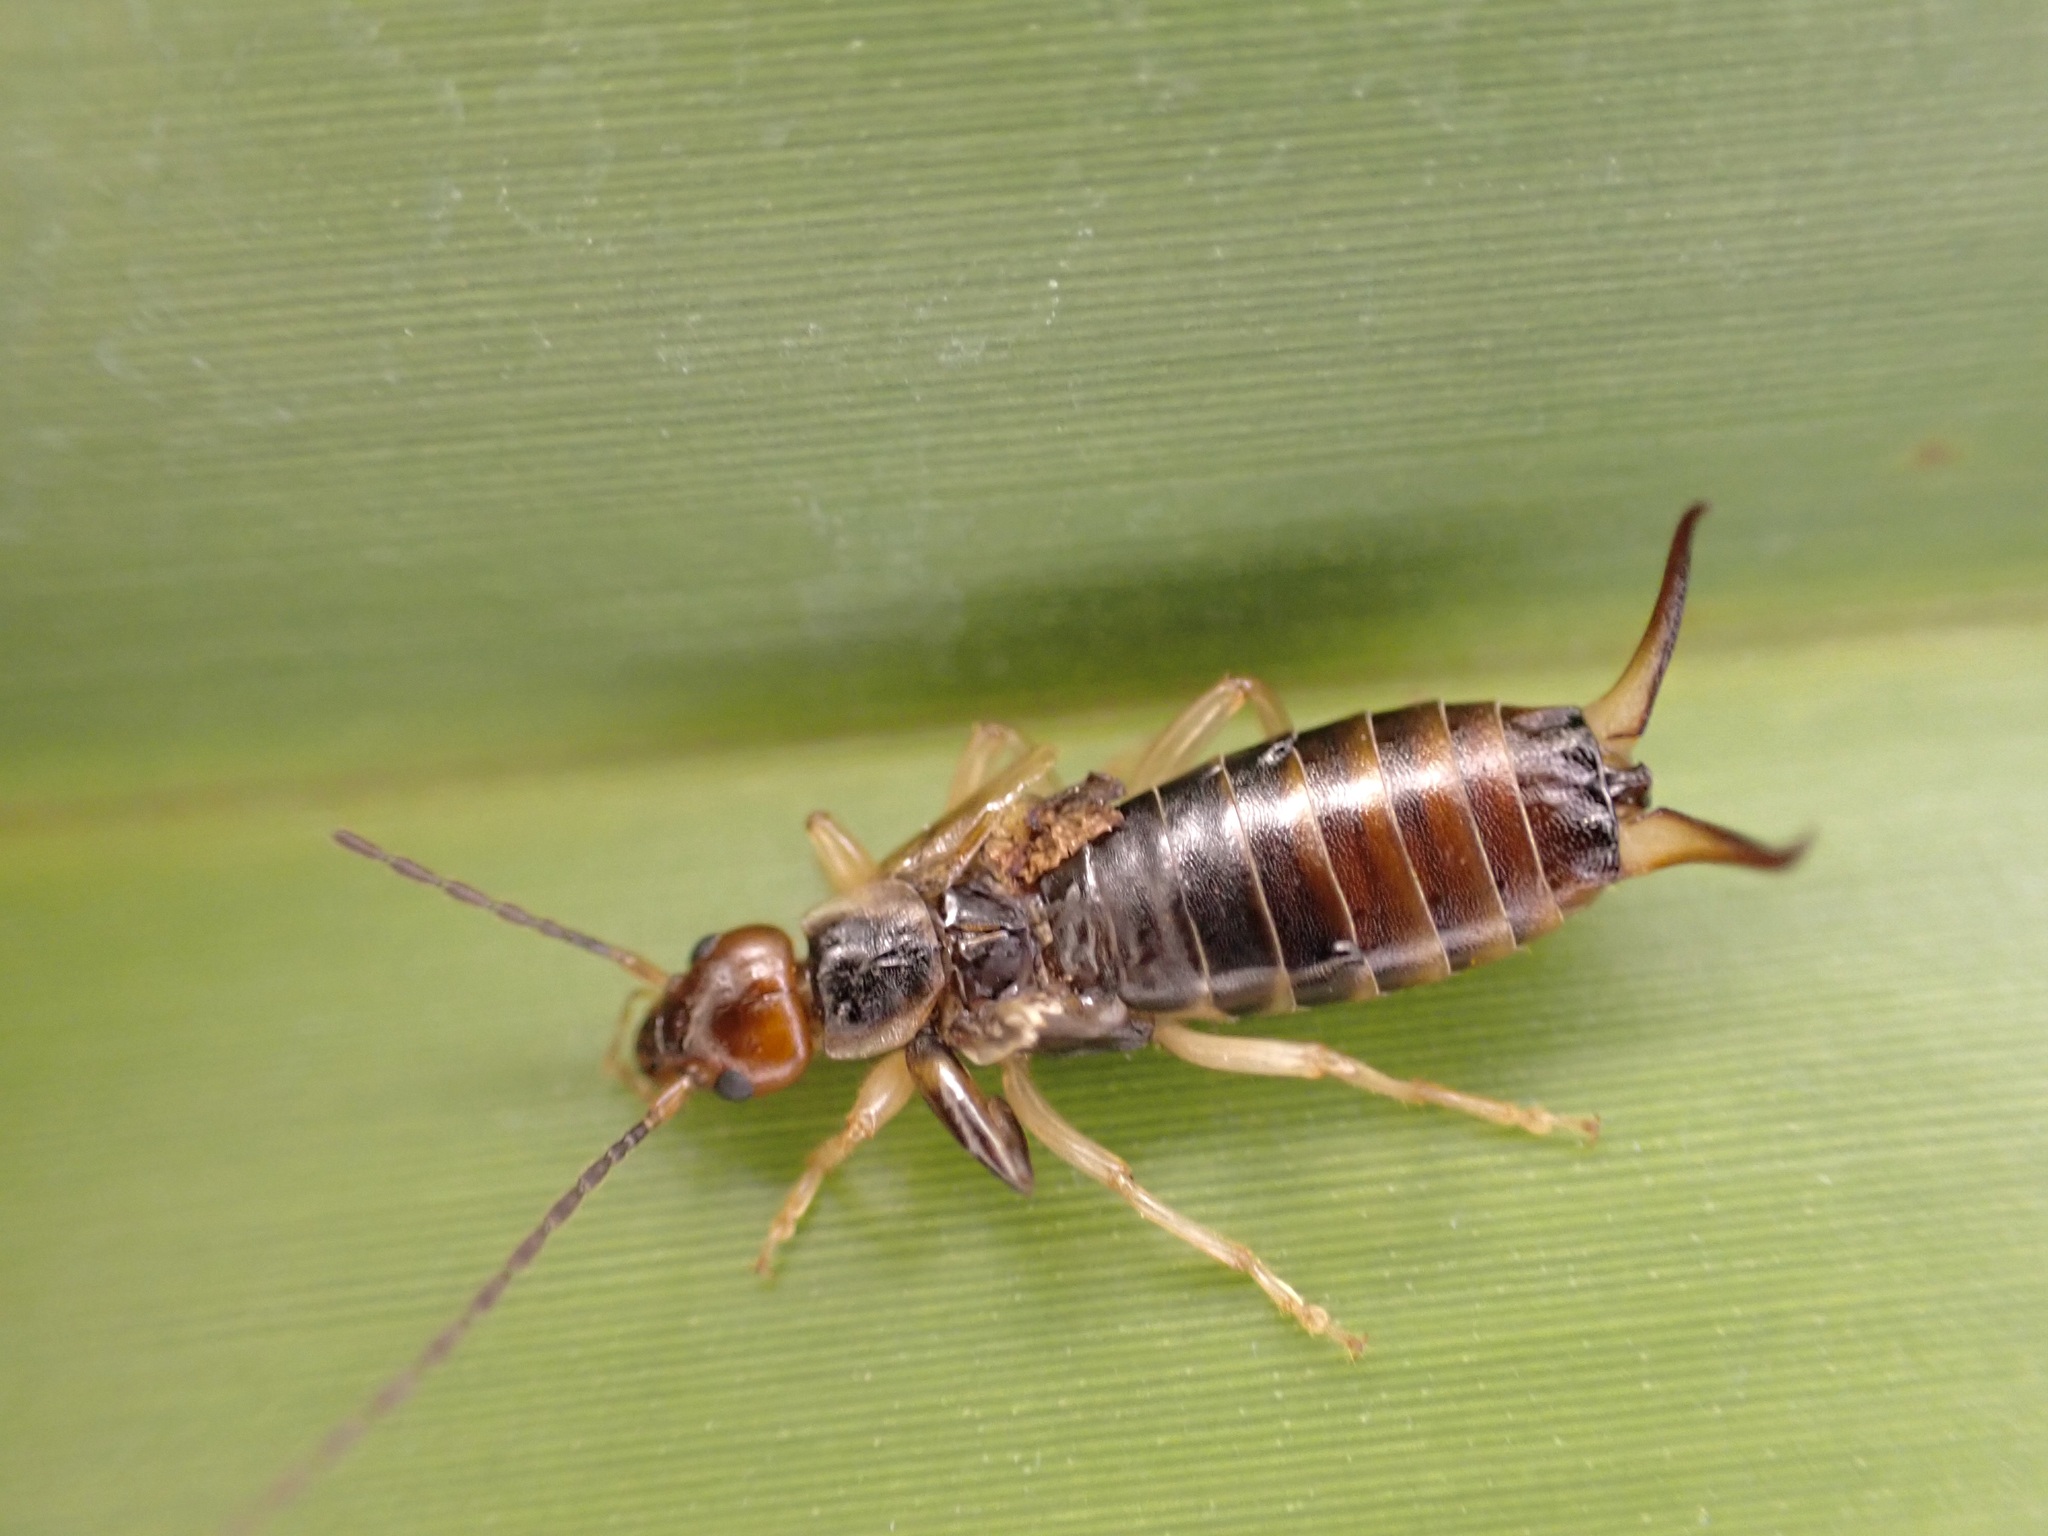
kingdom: Animalia
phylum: Arthropoda
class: Insecta
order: Dermaptera
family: Forficulidae
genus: Forficula
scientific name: Forficula
